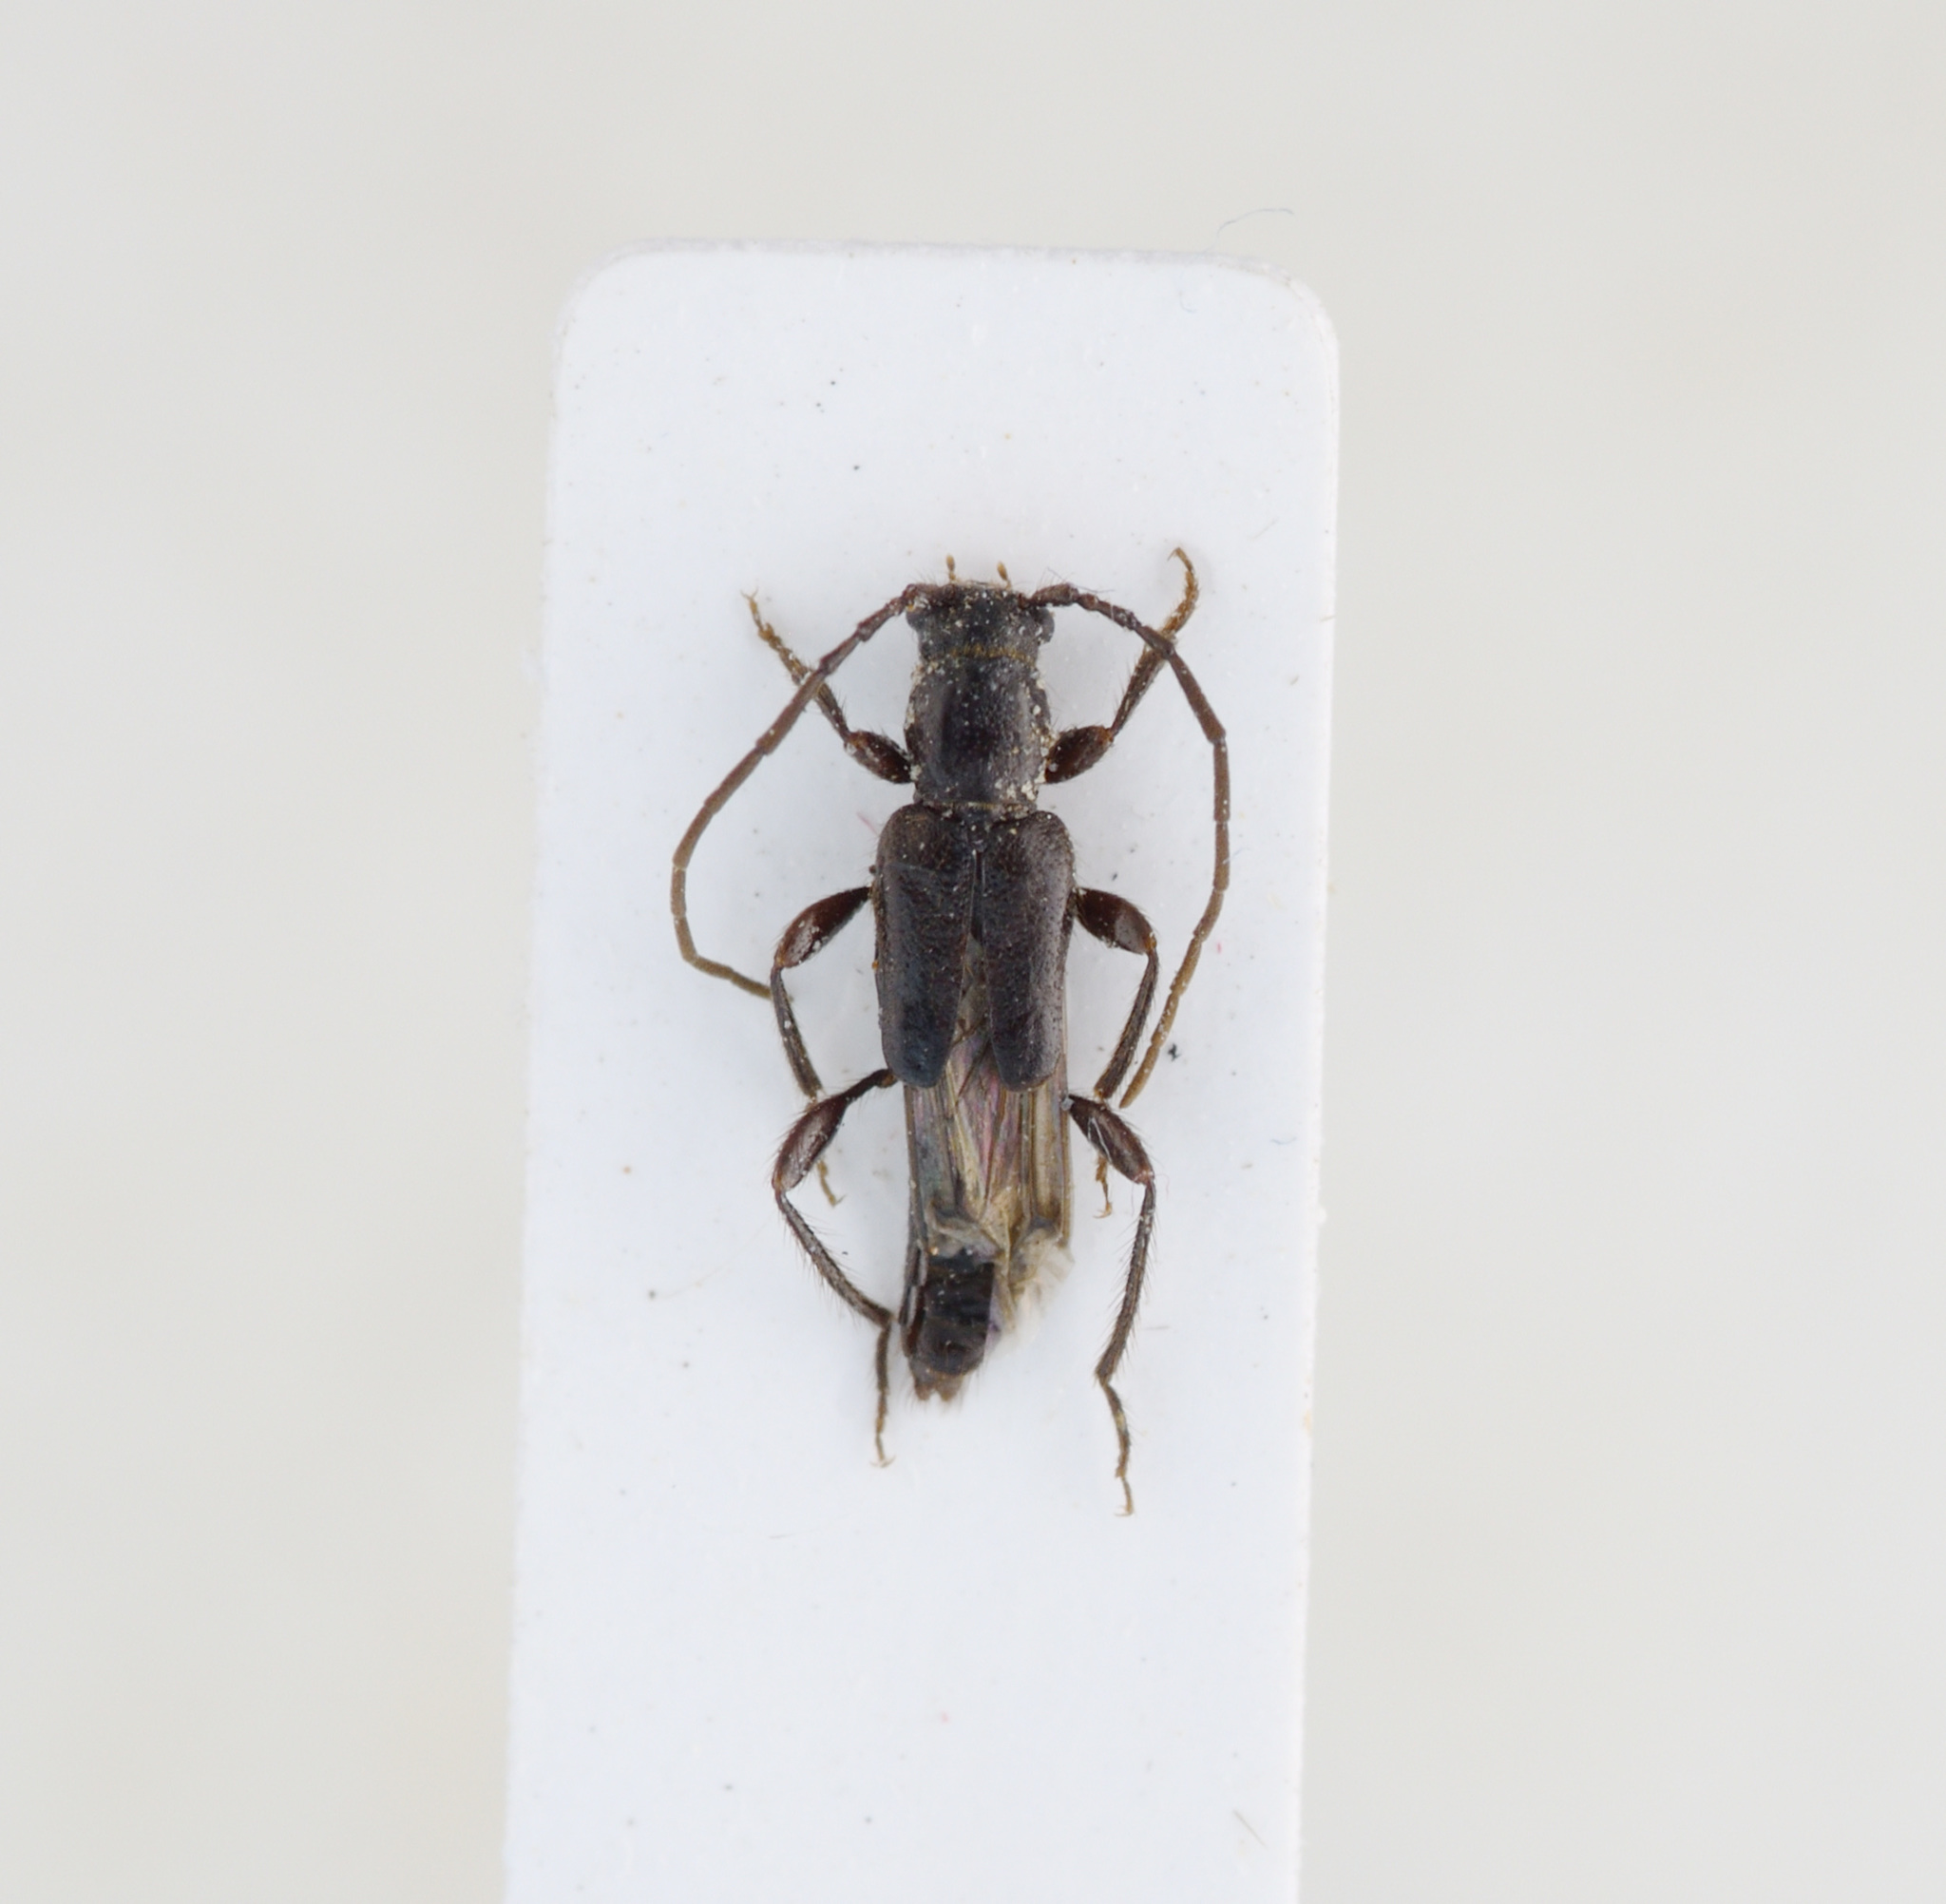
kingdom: Animalia
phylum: Arthropoda
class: Insecta
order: Coleoptera
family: Cerambycidae
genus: Nathrius
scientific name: Nathrius brevipennis
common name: Long-horned beetle
